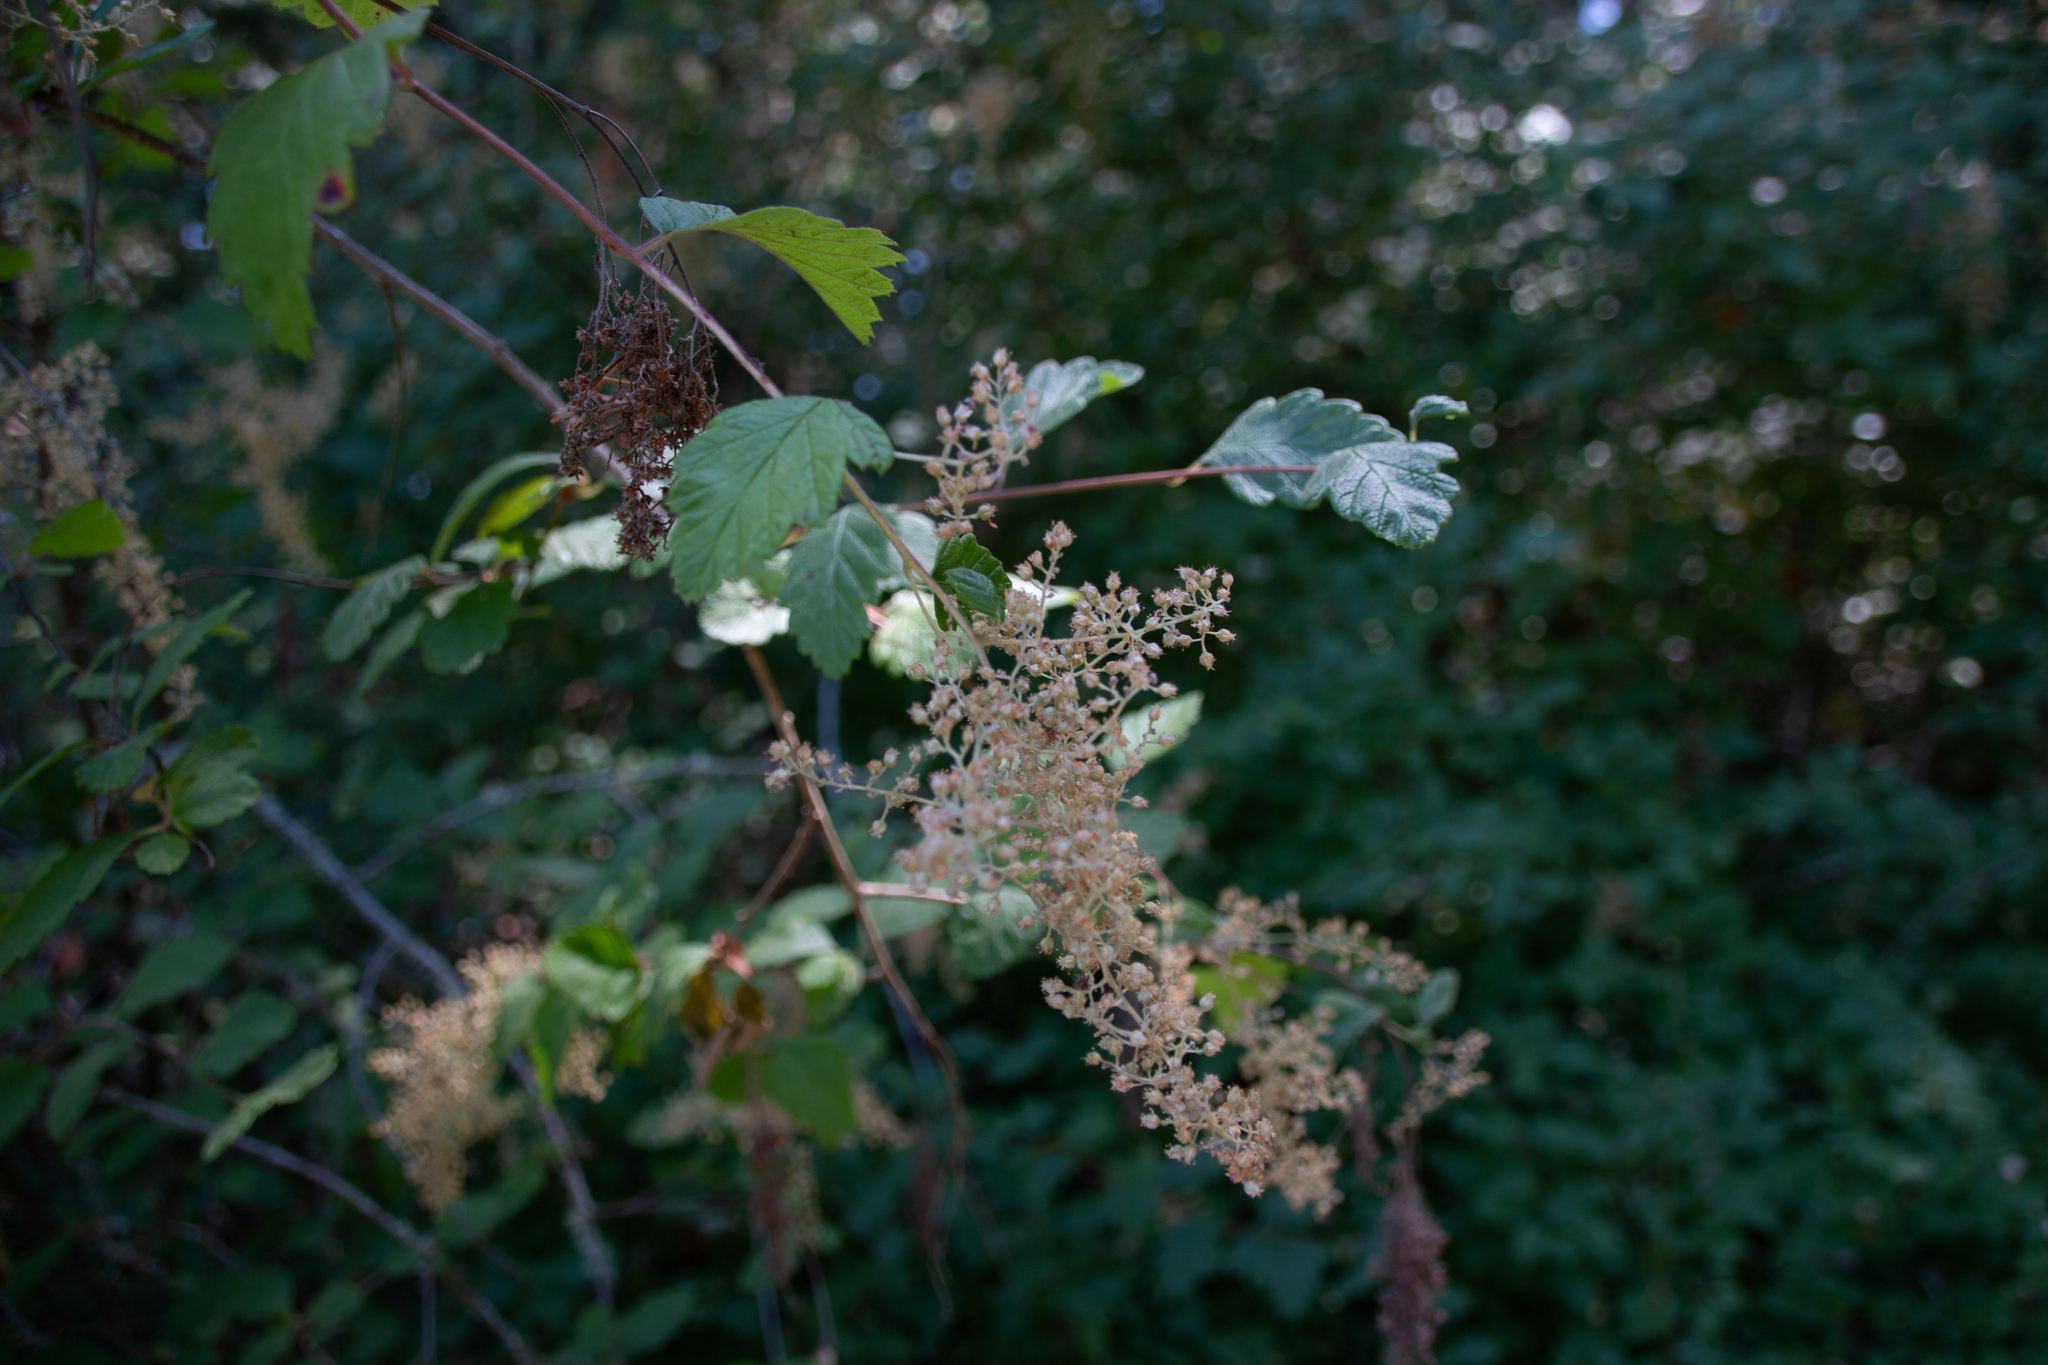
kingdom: Plantae
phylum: Tracheophyta
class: Magnoliopsida
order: Rosales
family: Rosaceae
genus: Holodiscus
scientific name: Holodiscus discolor
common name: Oceanspray
